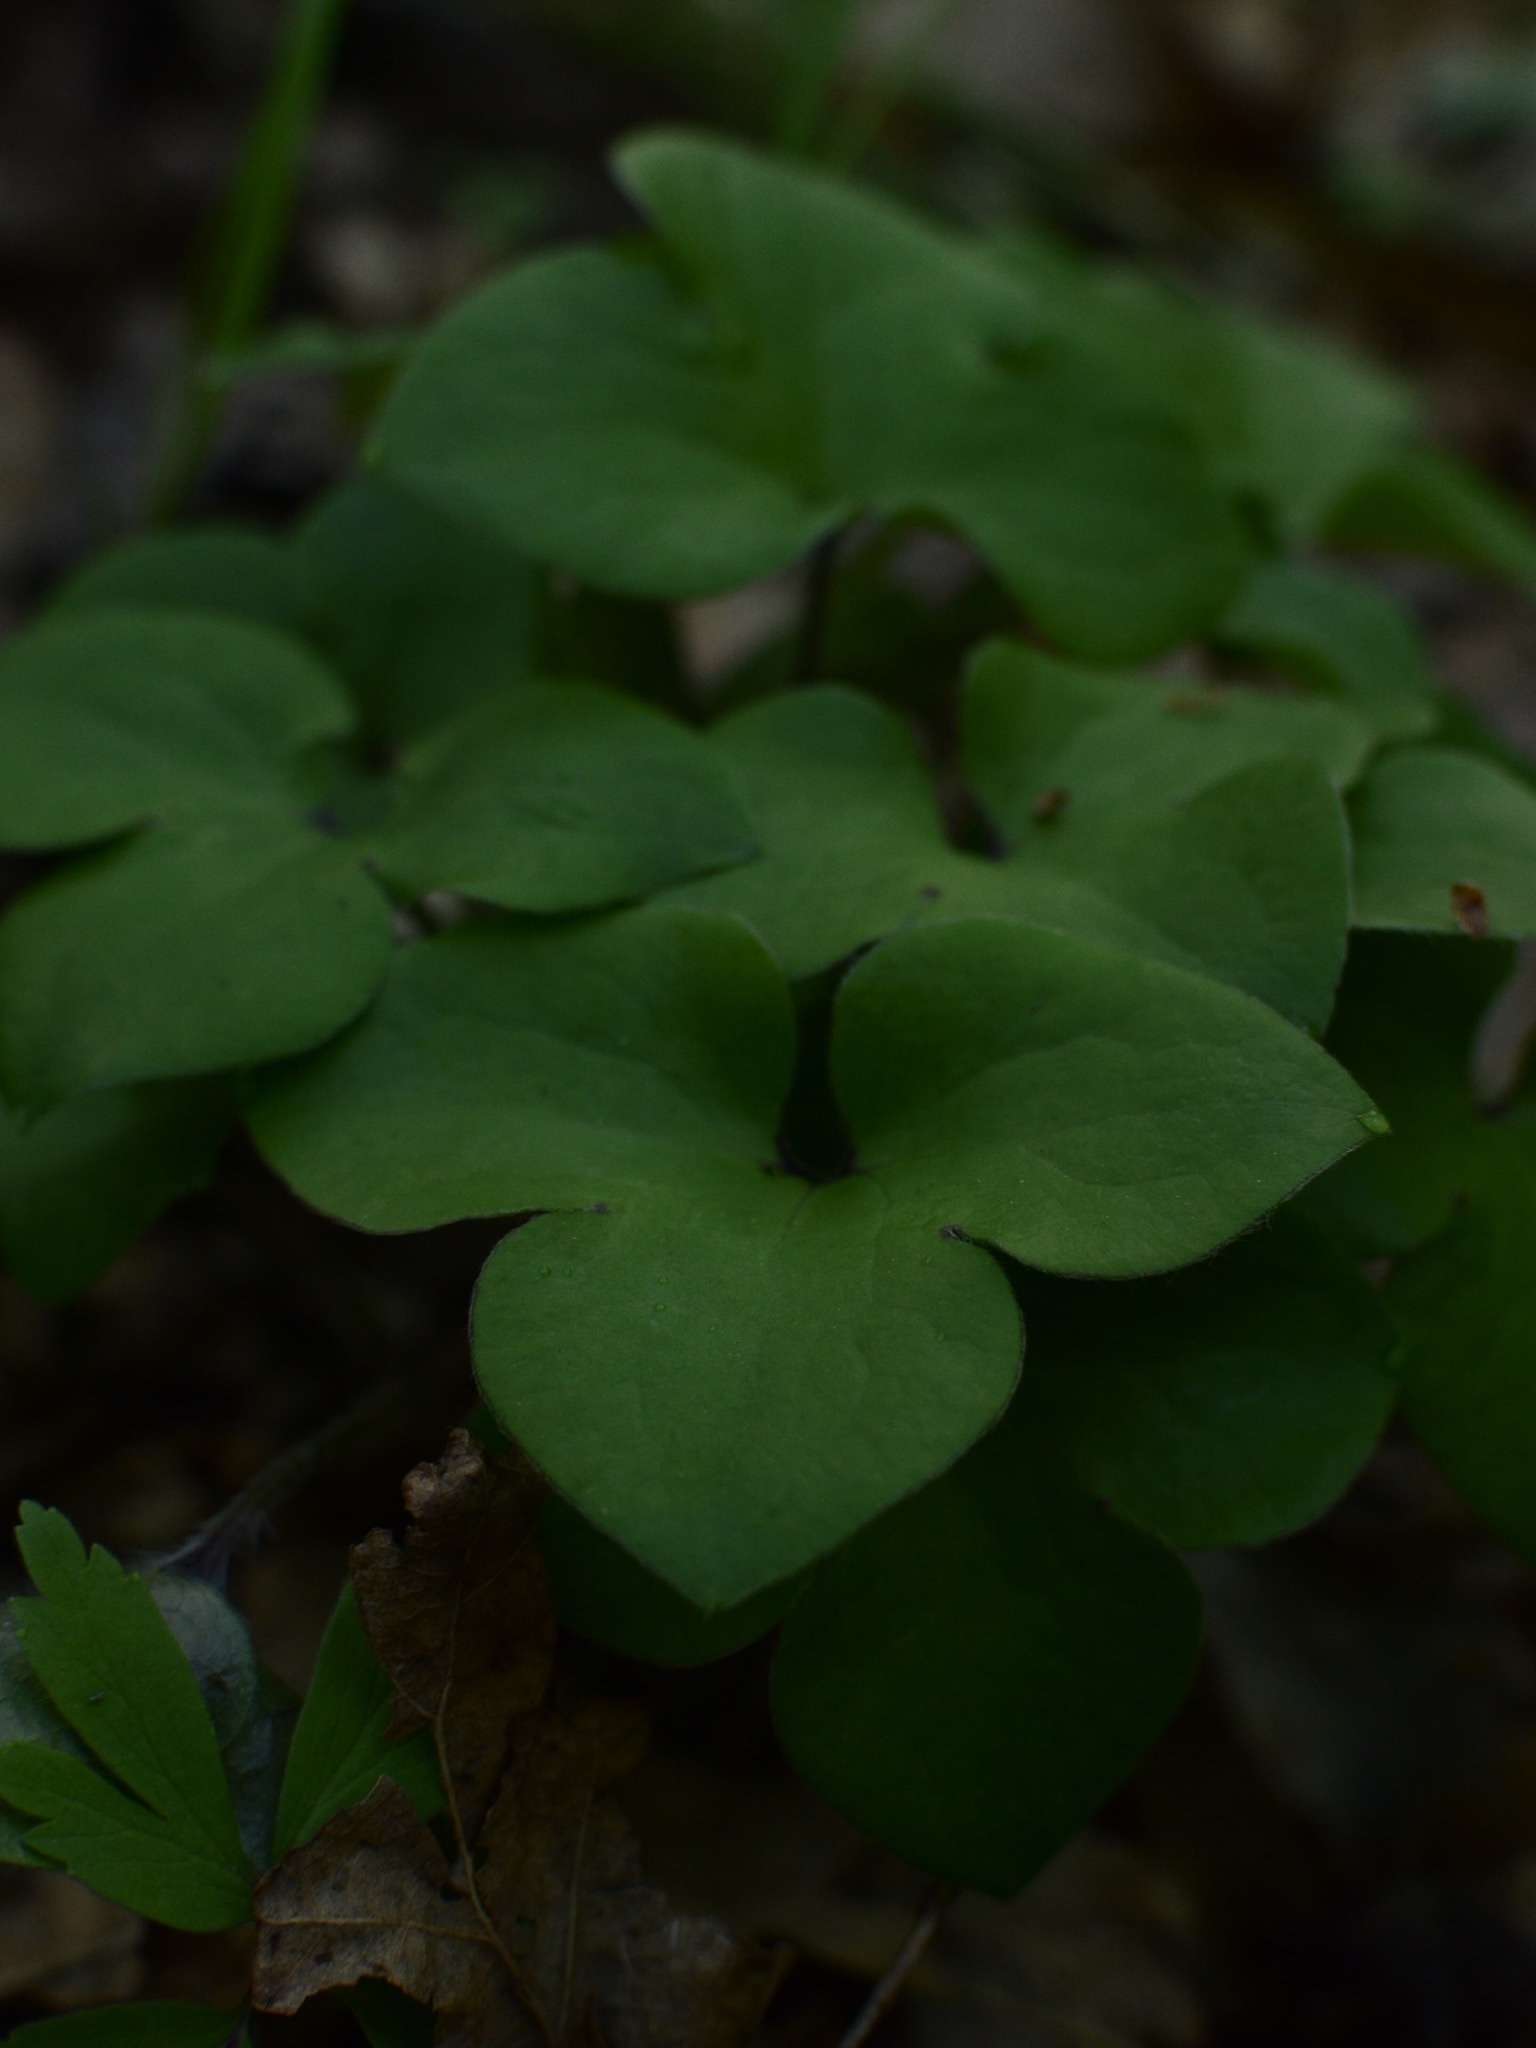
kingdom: Plantae
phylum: Tracheophyta
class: Magnoliopsida
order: Ranunculales
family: Ranunculaceae
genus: Hepatica
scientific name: Hepatica nobilis
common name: Liverleaf
